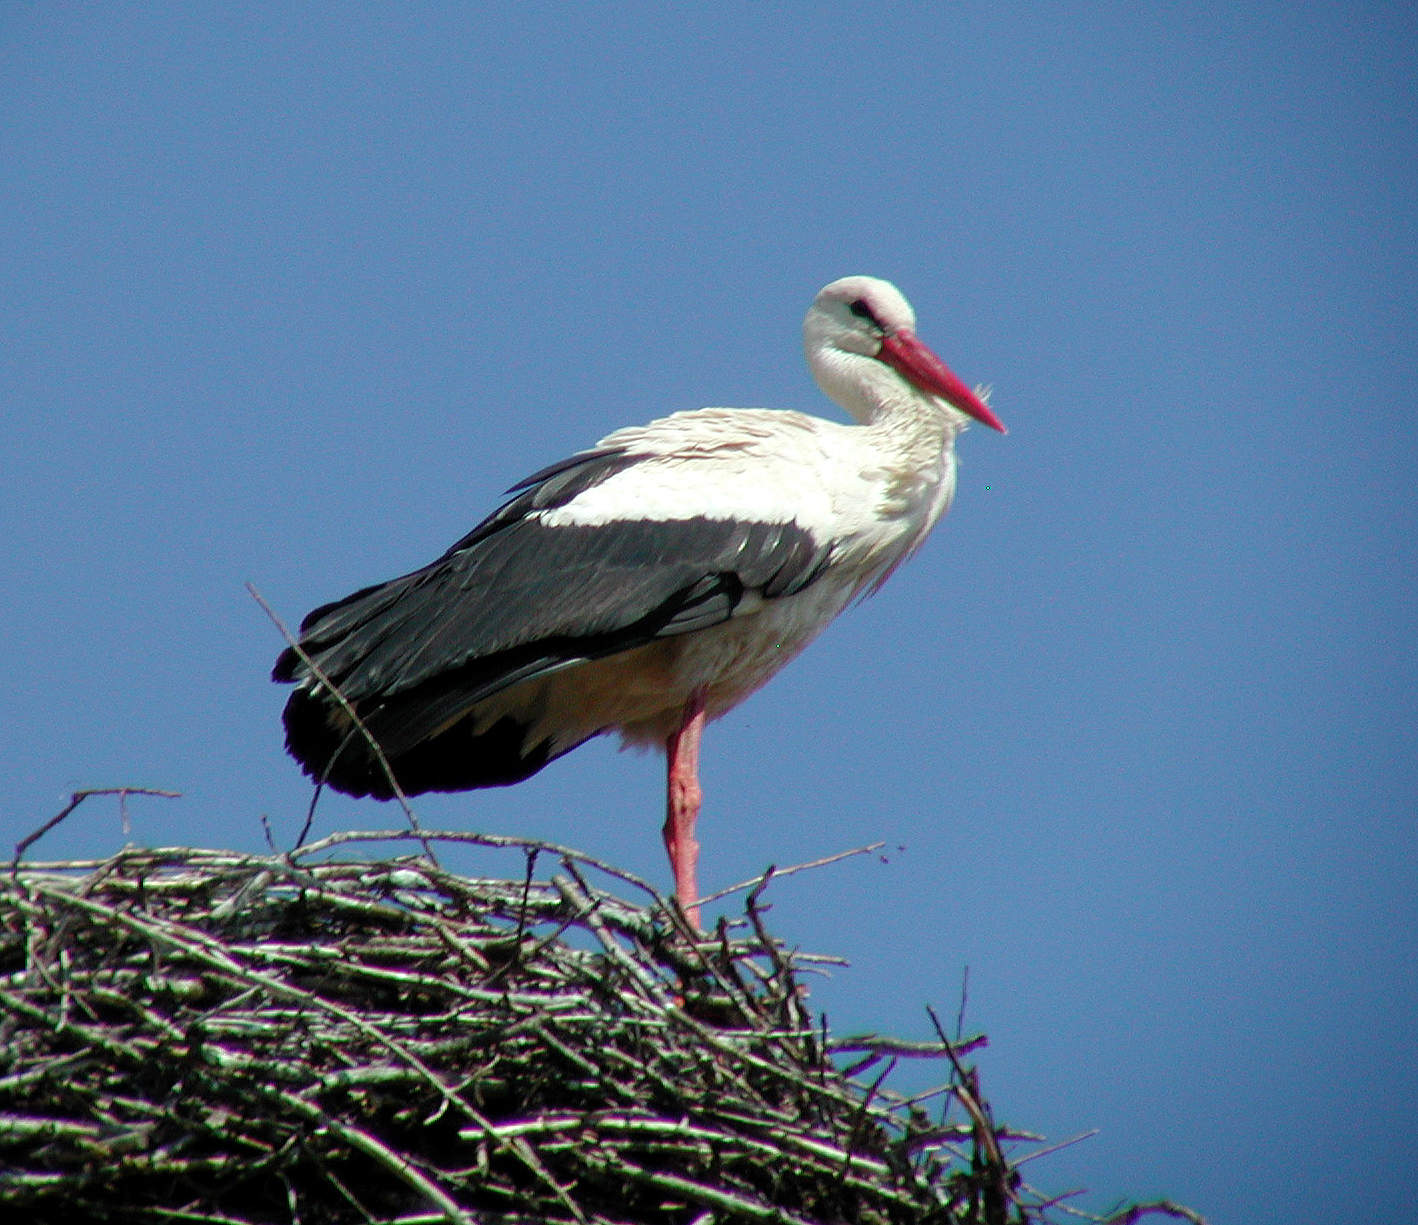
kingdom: Animalia
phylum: Chordata
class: Aves
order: Ciconiiformes
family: Ciconiidae
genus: Ciconia
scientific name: Ciconia ciconia
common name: White stork
